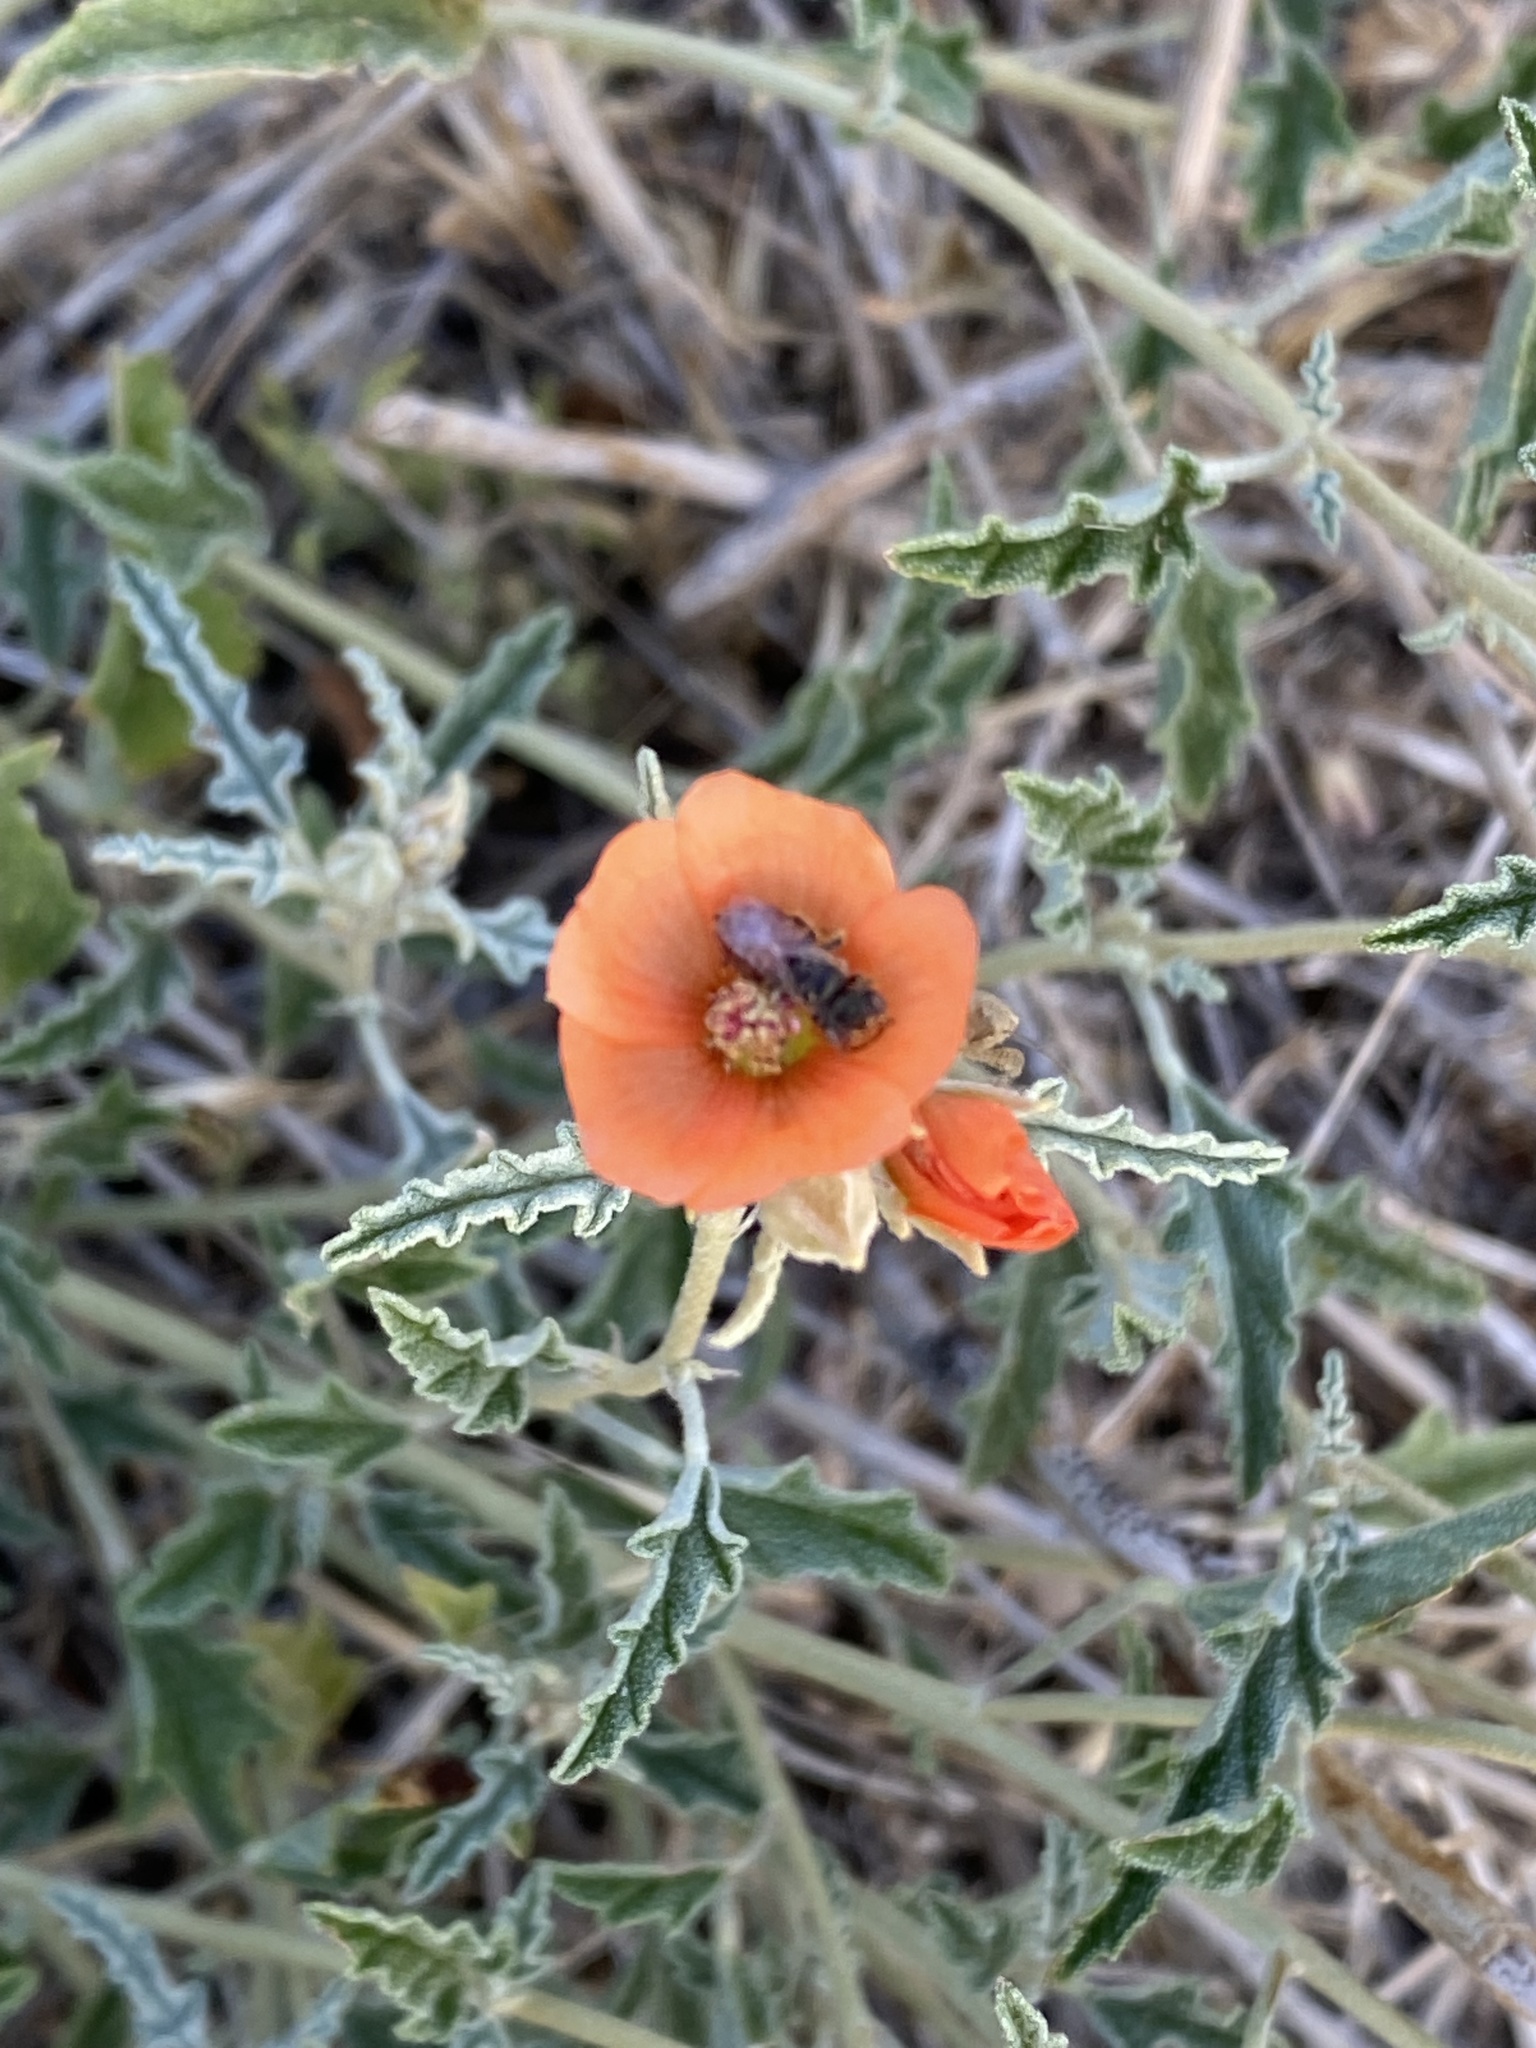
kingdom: Animalia
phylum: Arthropoda
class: Insecta
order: Hymenoptera
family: Andrenidae
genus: Macrotera
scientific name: Macrotera latior
